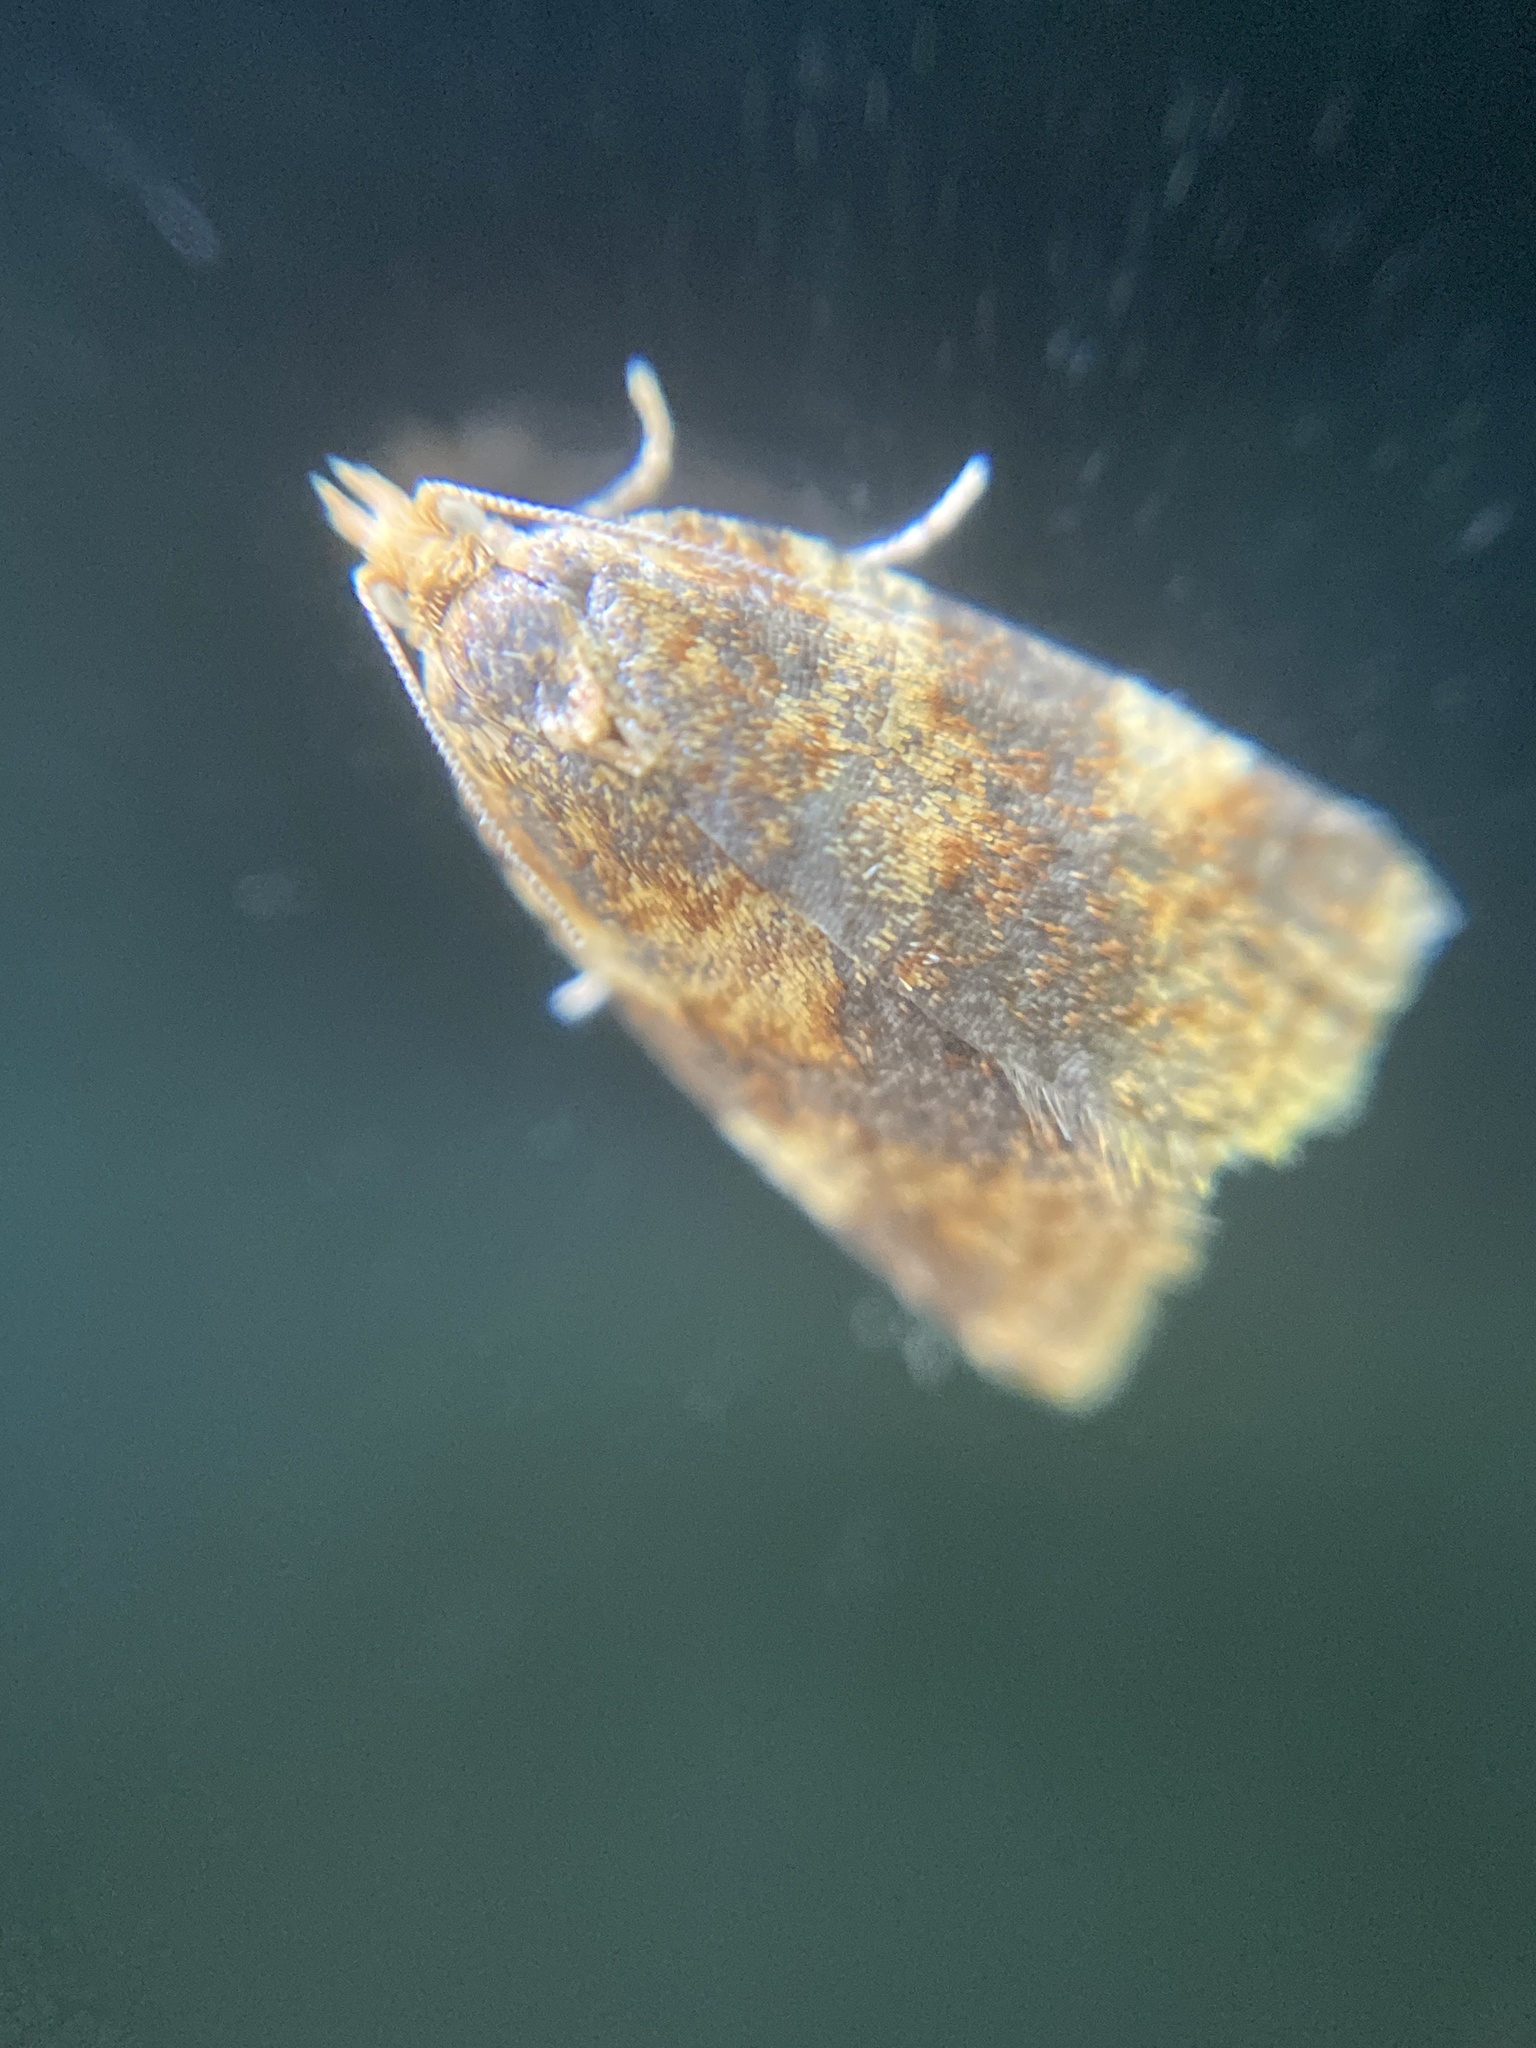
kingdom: Animalia
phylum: Arthropoda
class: Insecta
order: Lepidoptera
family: Tortricidae
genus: Epagoge
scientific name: Epagoge grotiana
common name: Brown-barred twist
